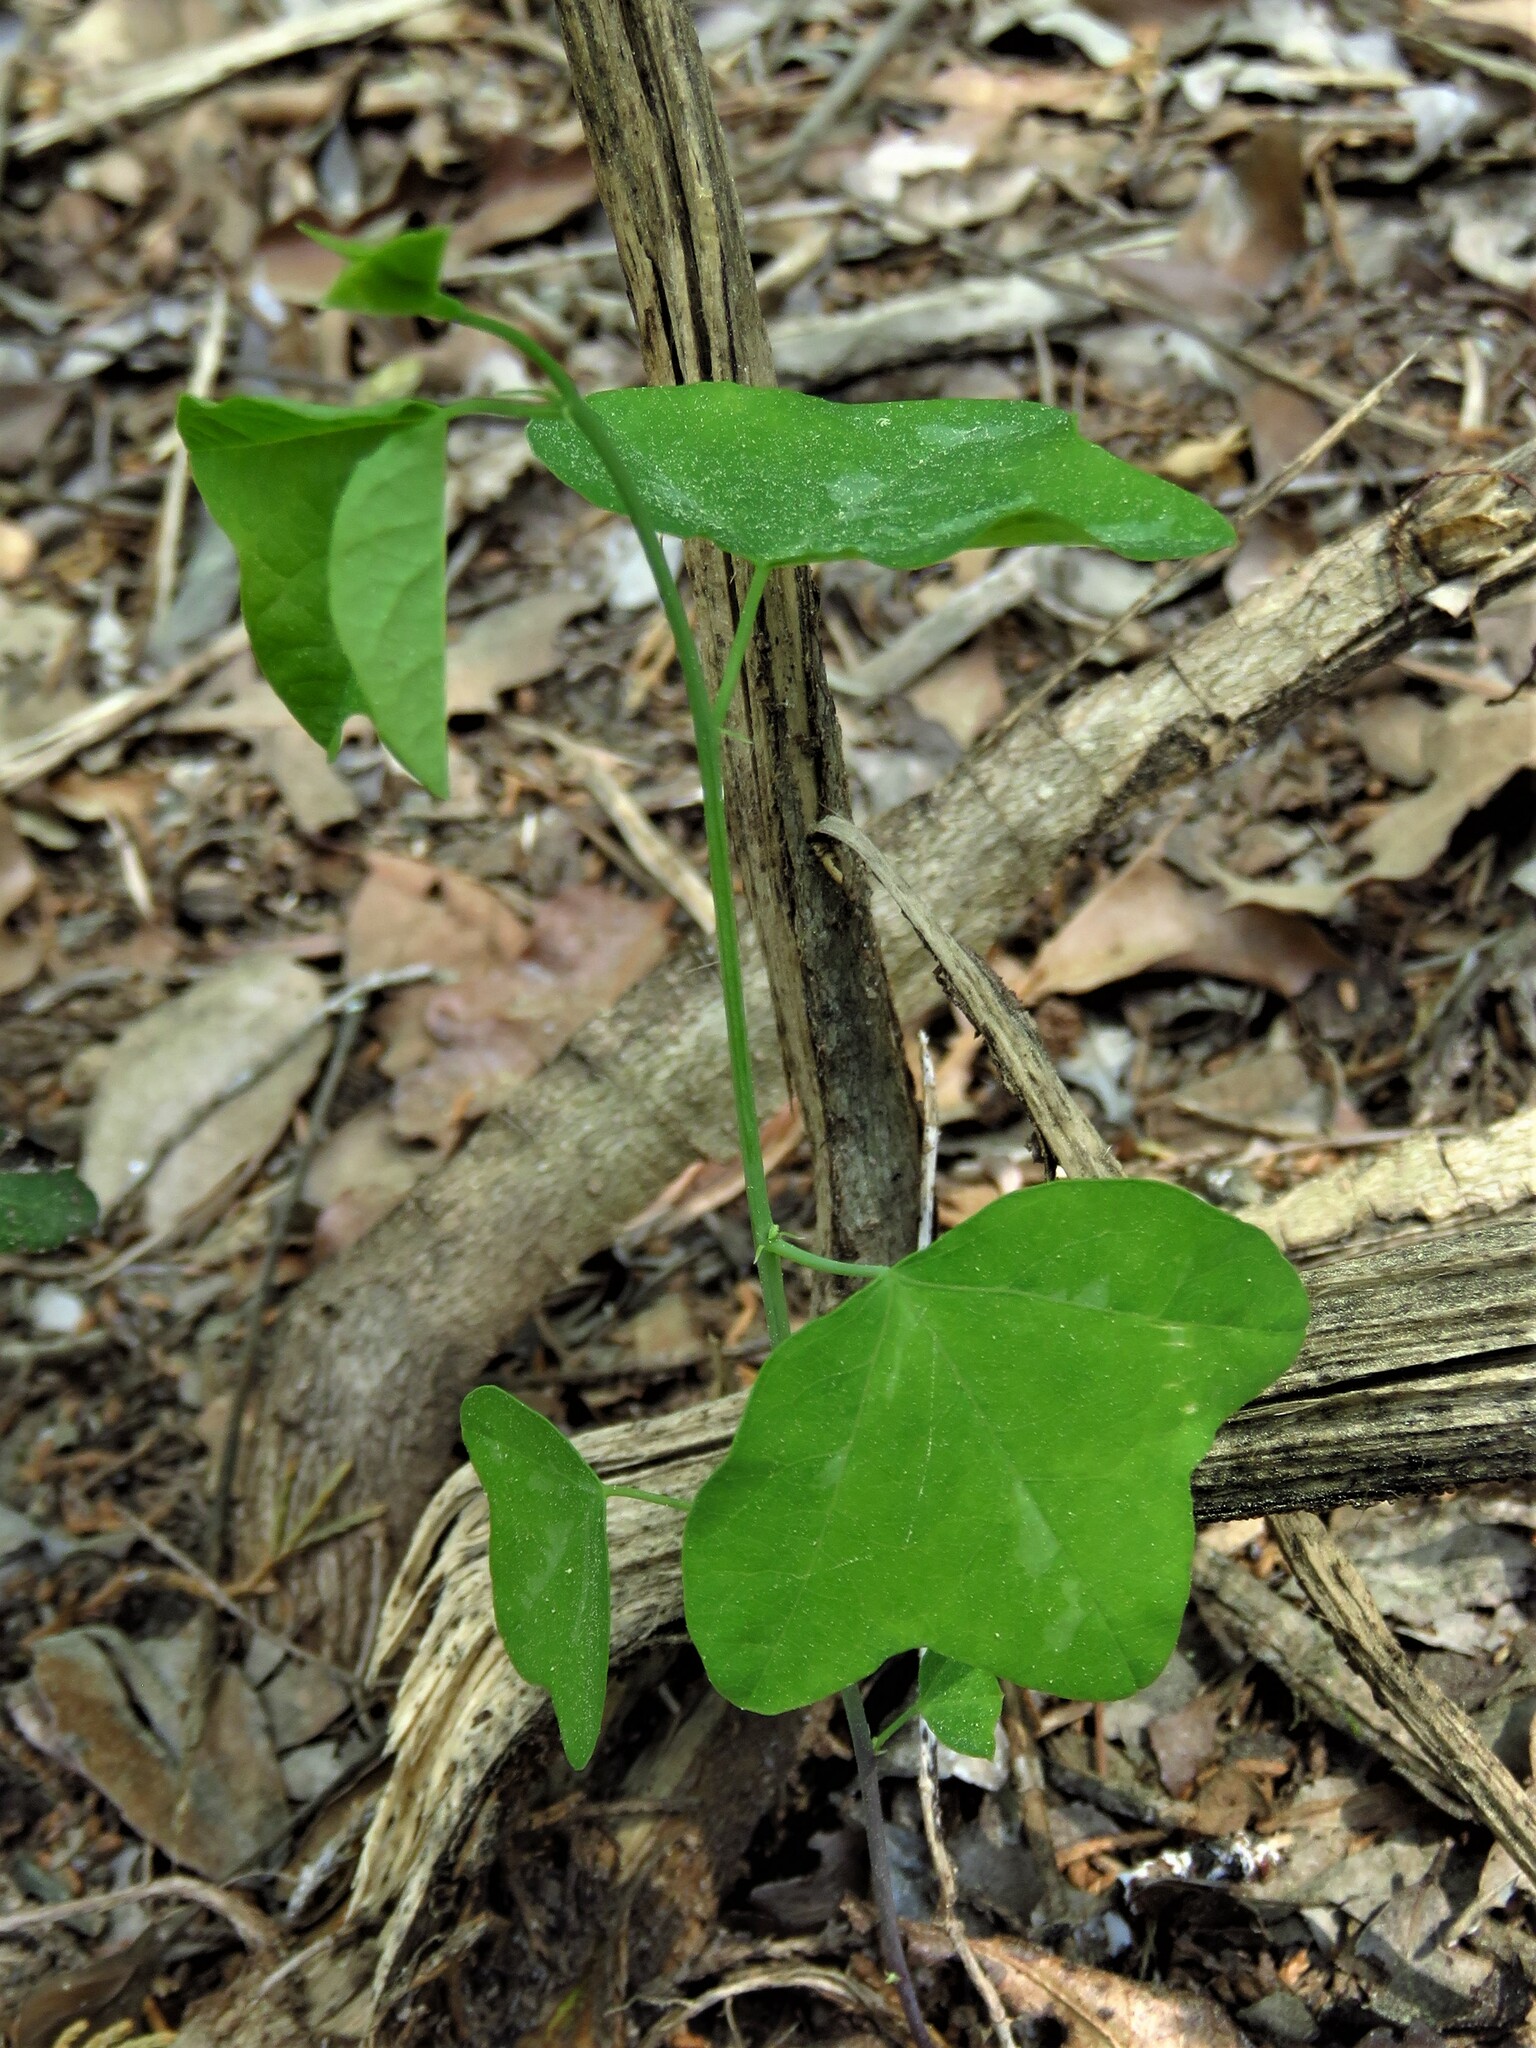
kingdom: Plantae
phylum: Tracheophyta
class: Magnoliopsida
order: Malpighiales
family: Passifloraceae
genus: Passiflora
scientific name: Passiflora lutea
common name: Yellow passionflower
